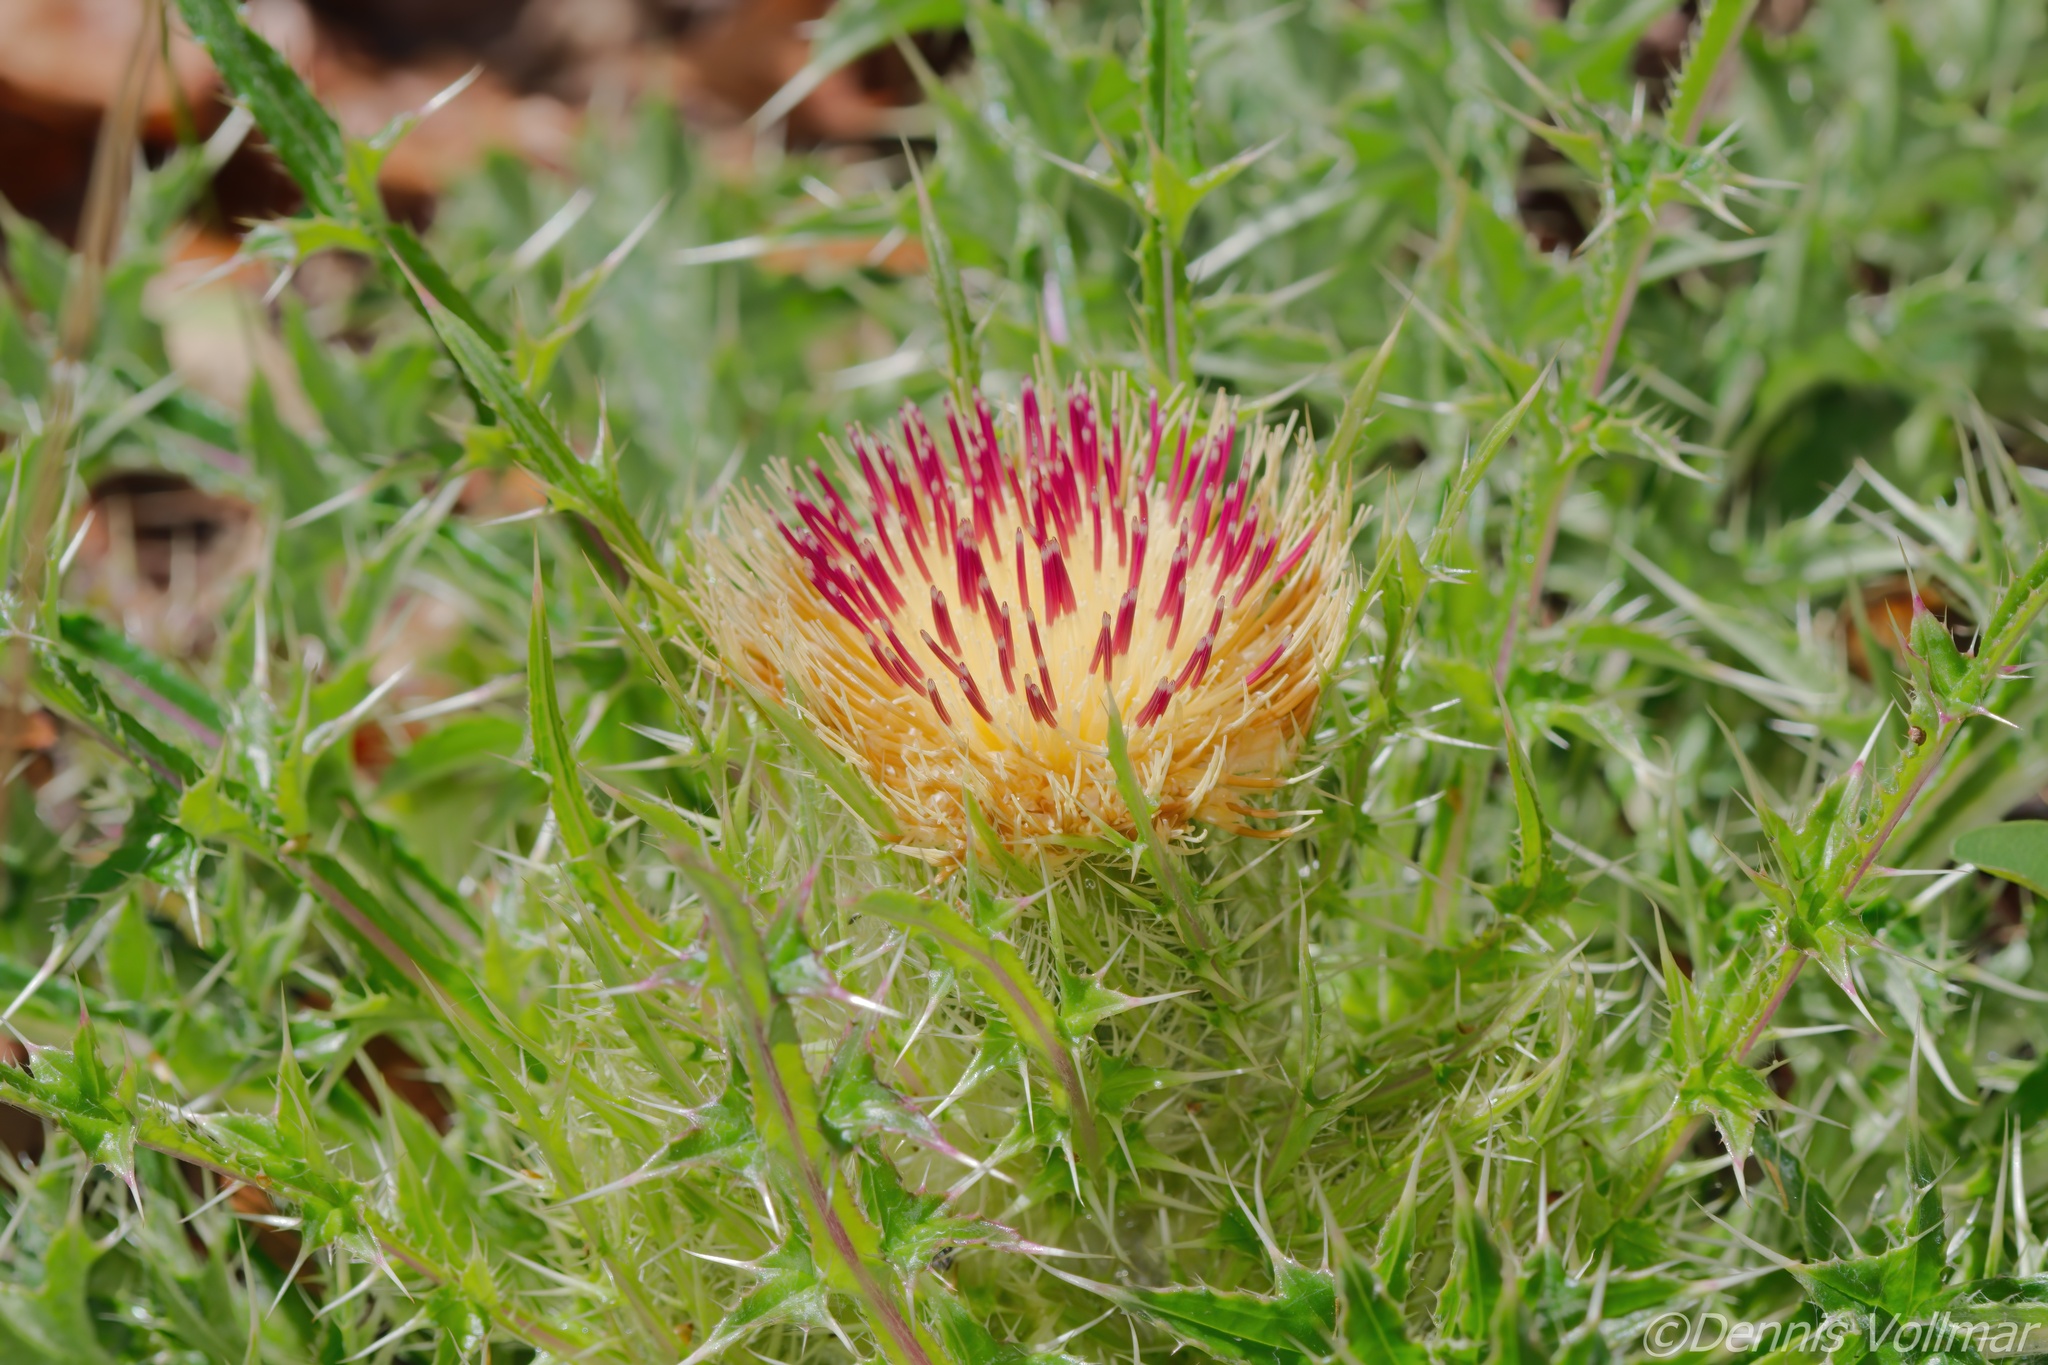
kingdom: Plantae
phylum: Tracheophyta
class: Magnoliopsida
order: Asterales
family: Asteraceae
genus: Cirsium
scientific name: Cirsium horridulum
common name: Bristly thistle
